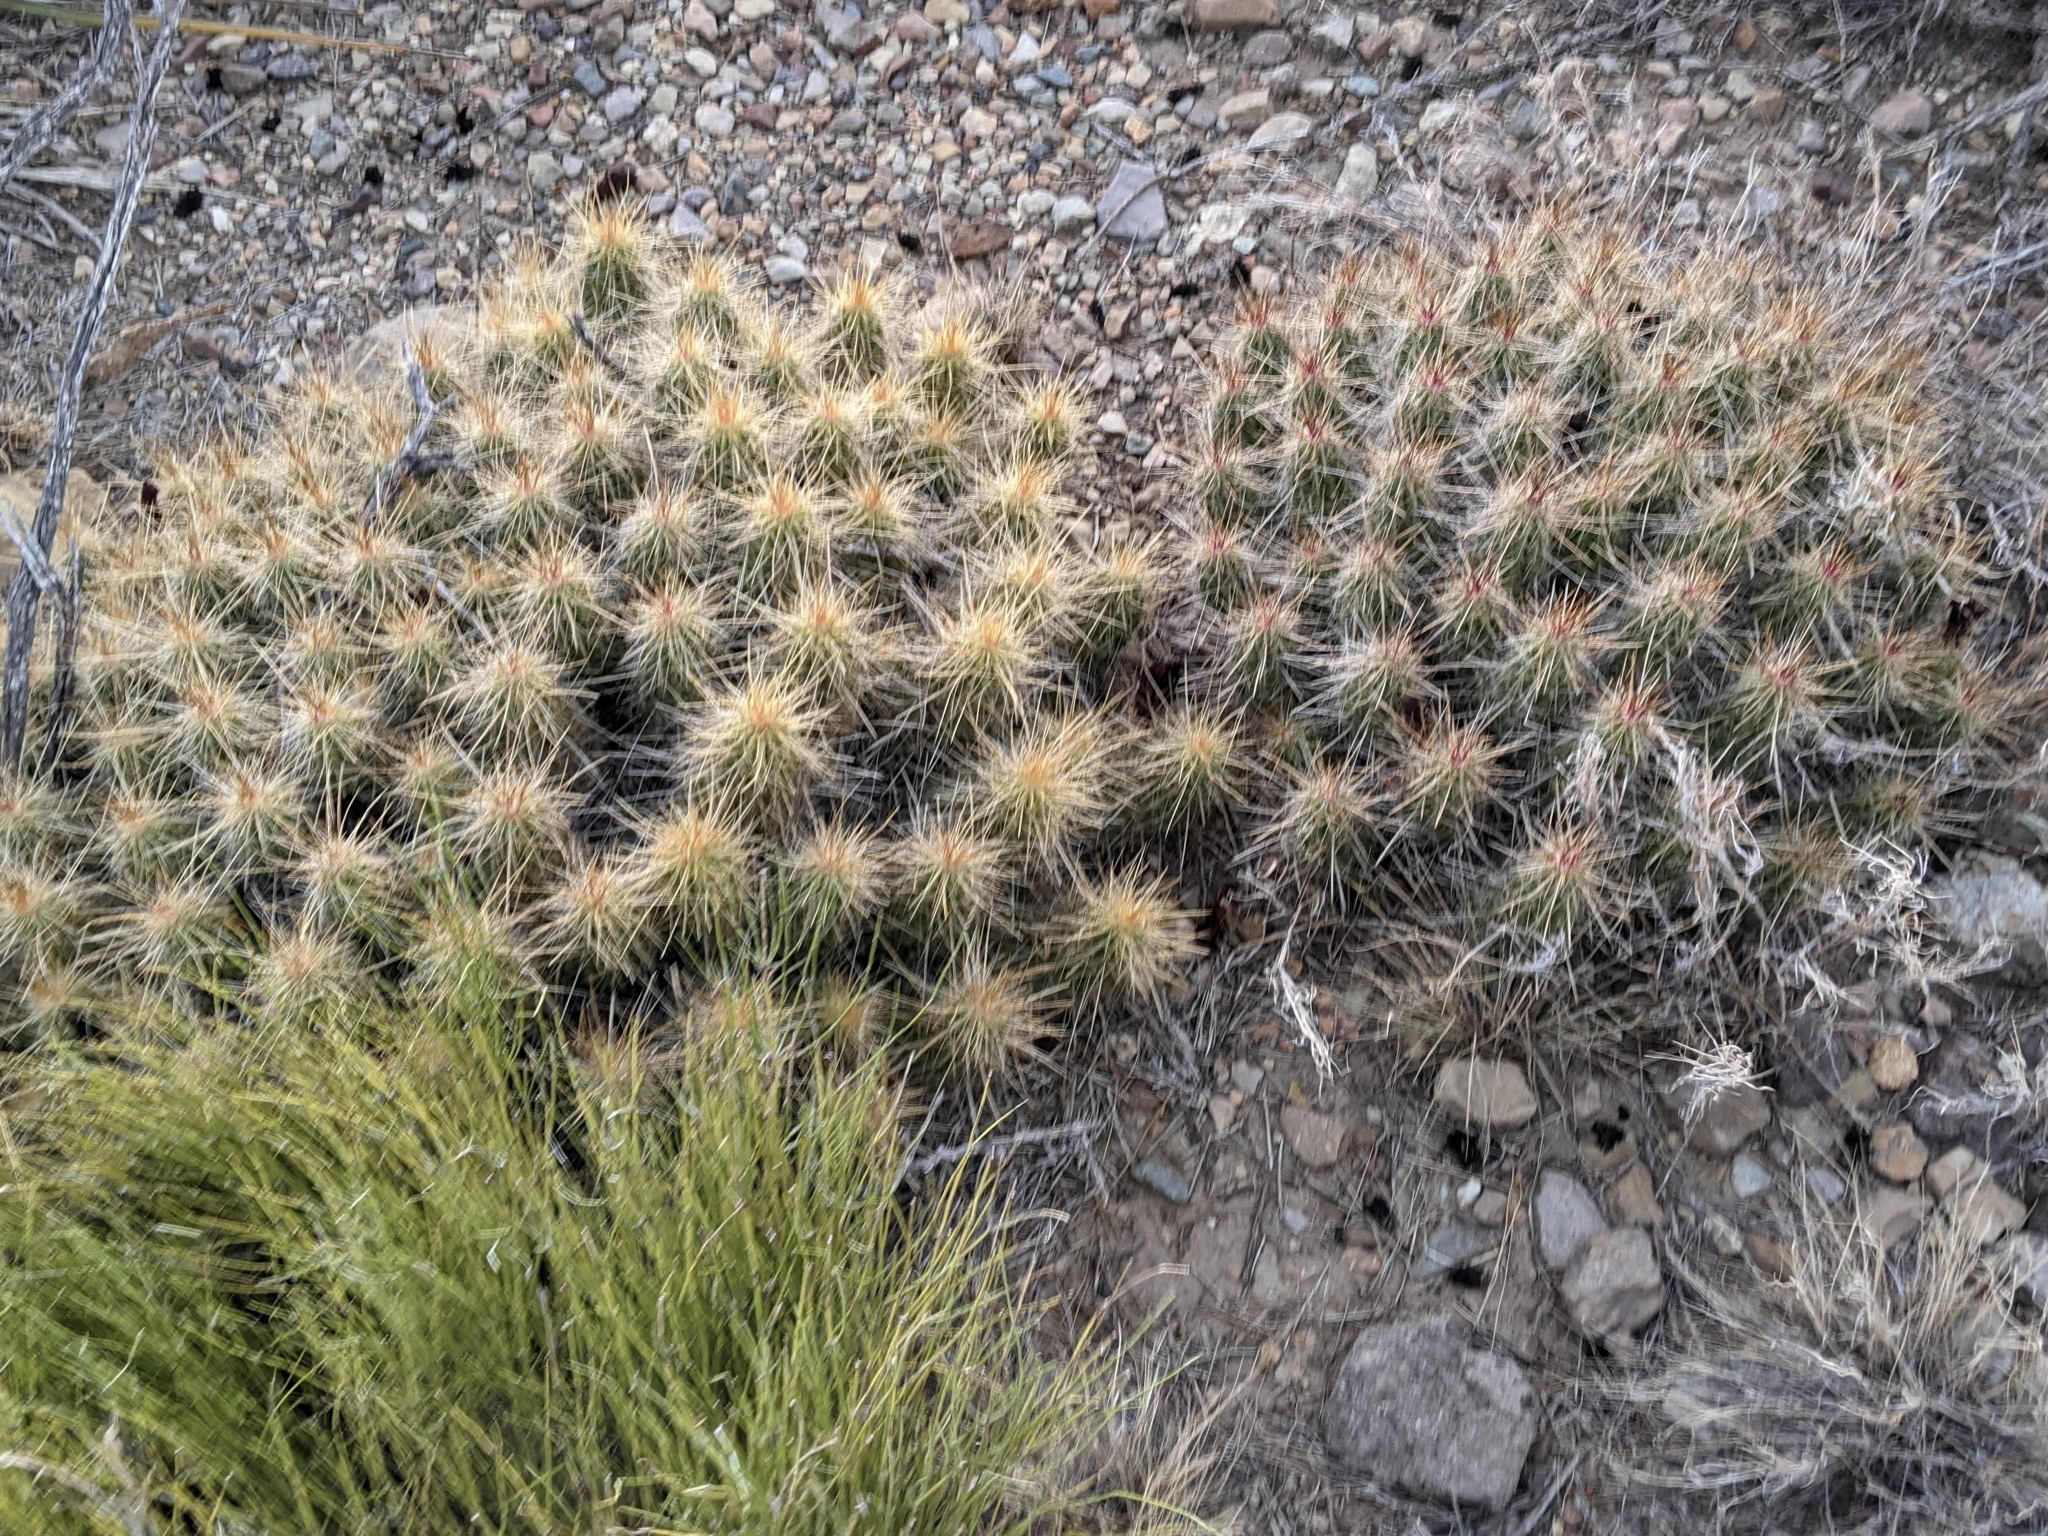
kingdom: Plantae
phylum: Tracheophyta
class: Magnoliopsida
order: Caryophyllales
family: Cactaceae
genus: Echinocereus
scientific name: Echinocereus stramineus
